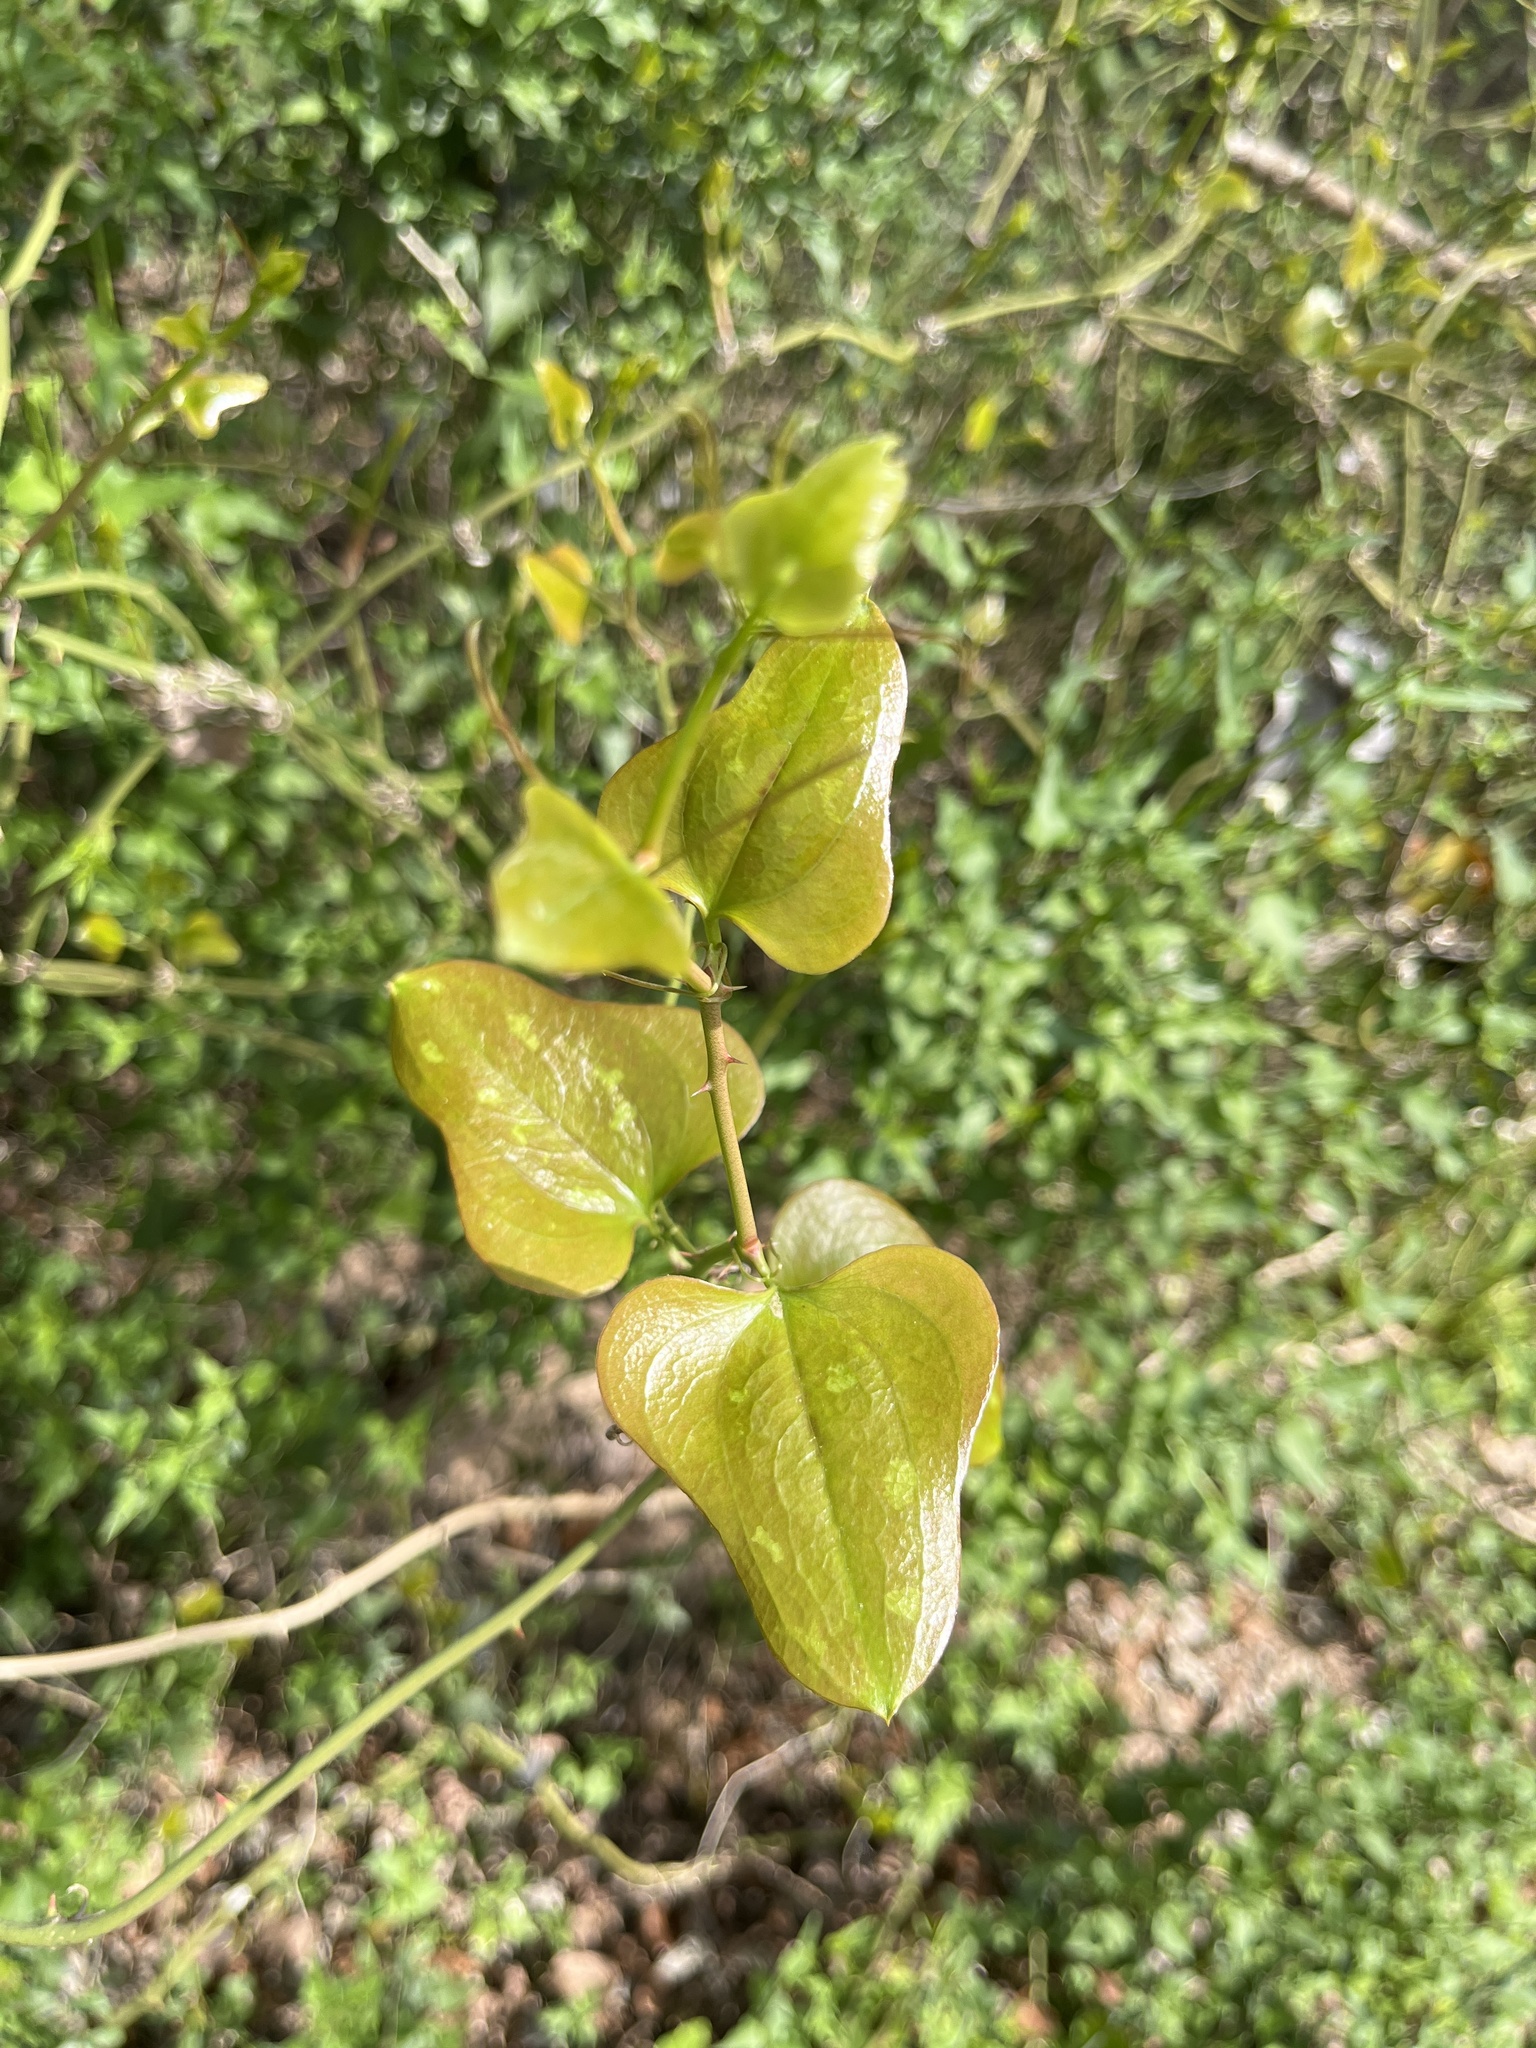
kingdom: Plantae
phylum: Tracheophyta
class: Liliopsida
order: Liliales
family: Smilacaceae
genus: Smilax
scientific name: Smilax bona-nox
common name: Catbrier
